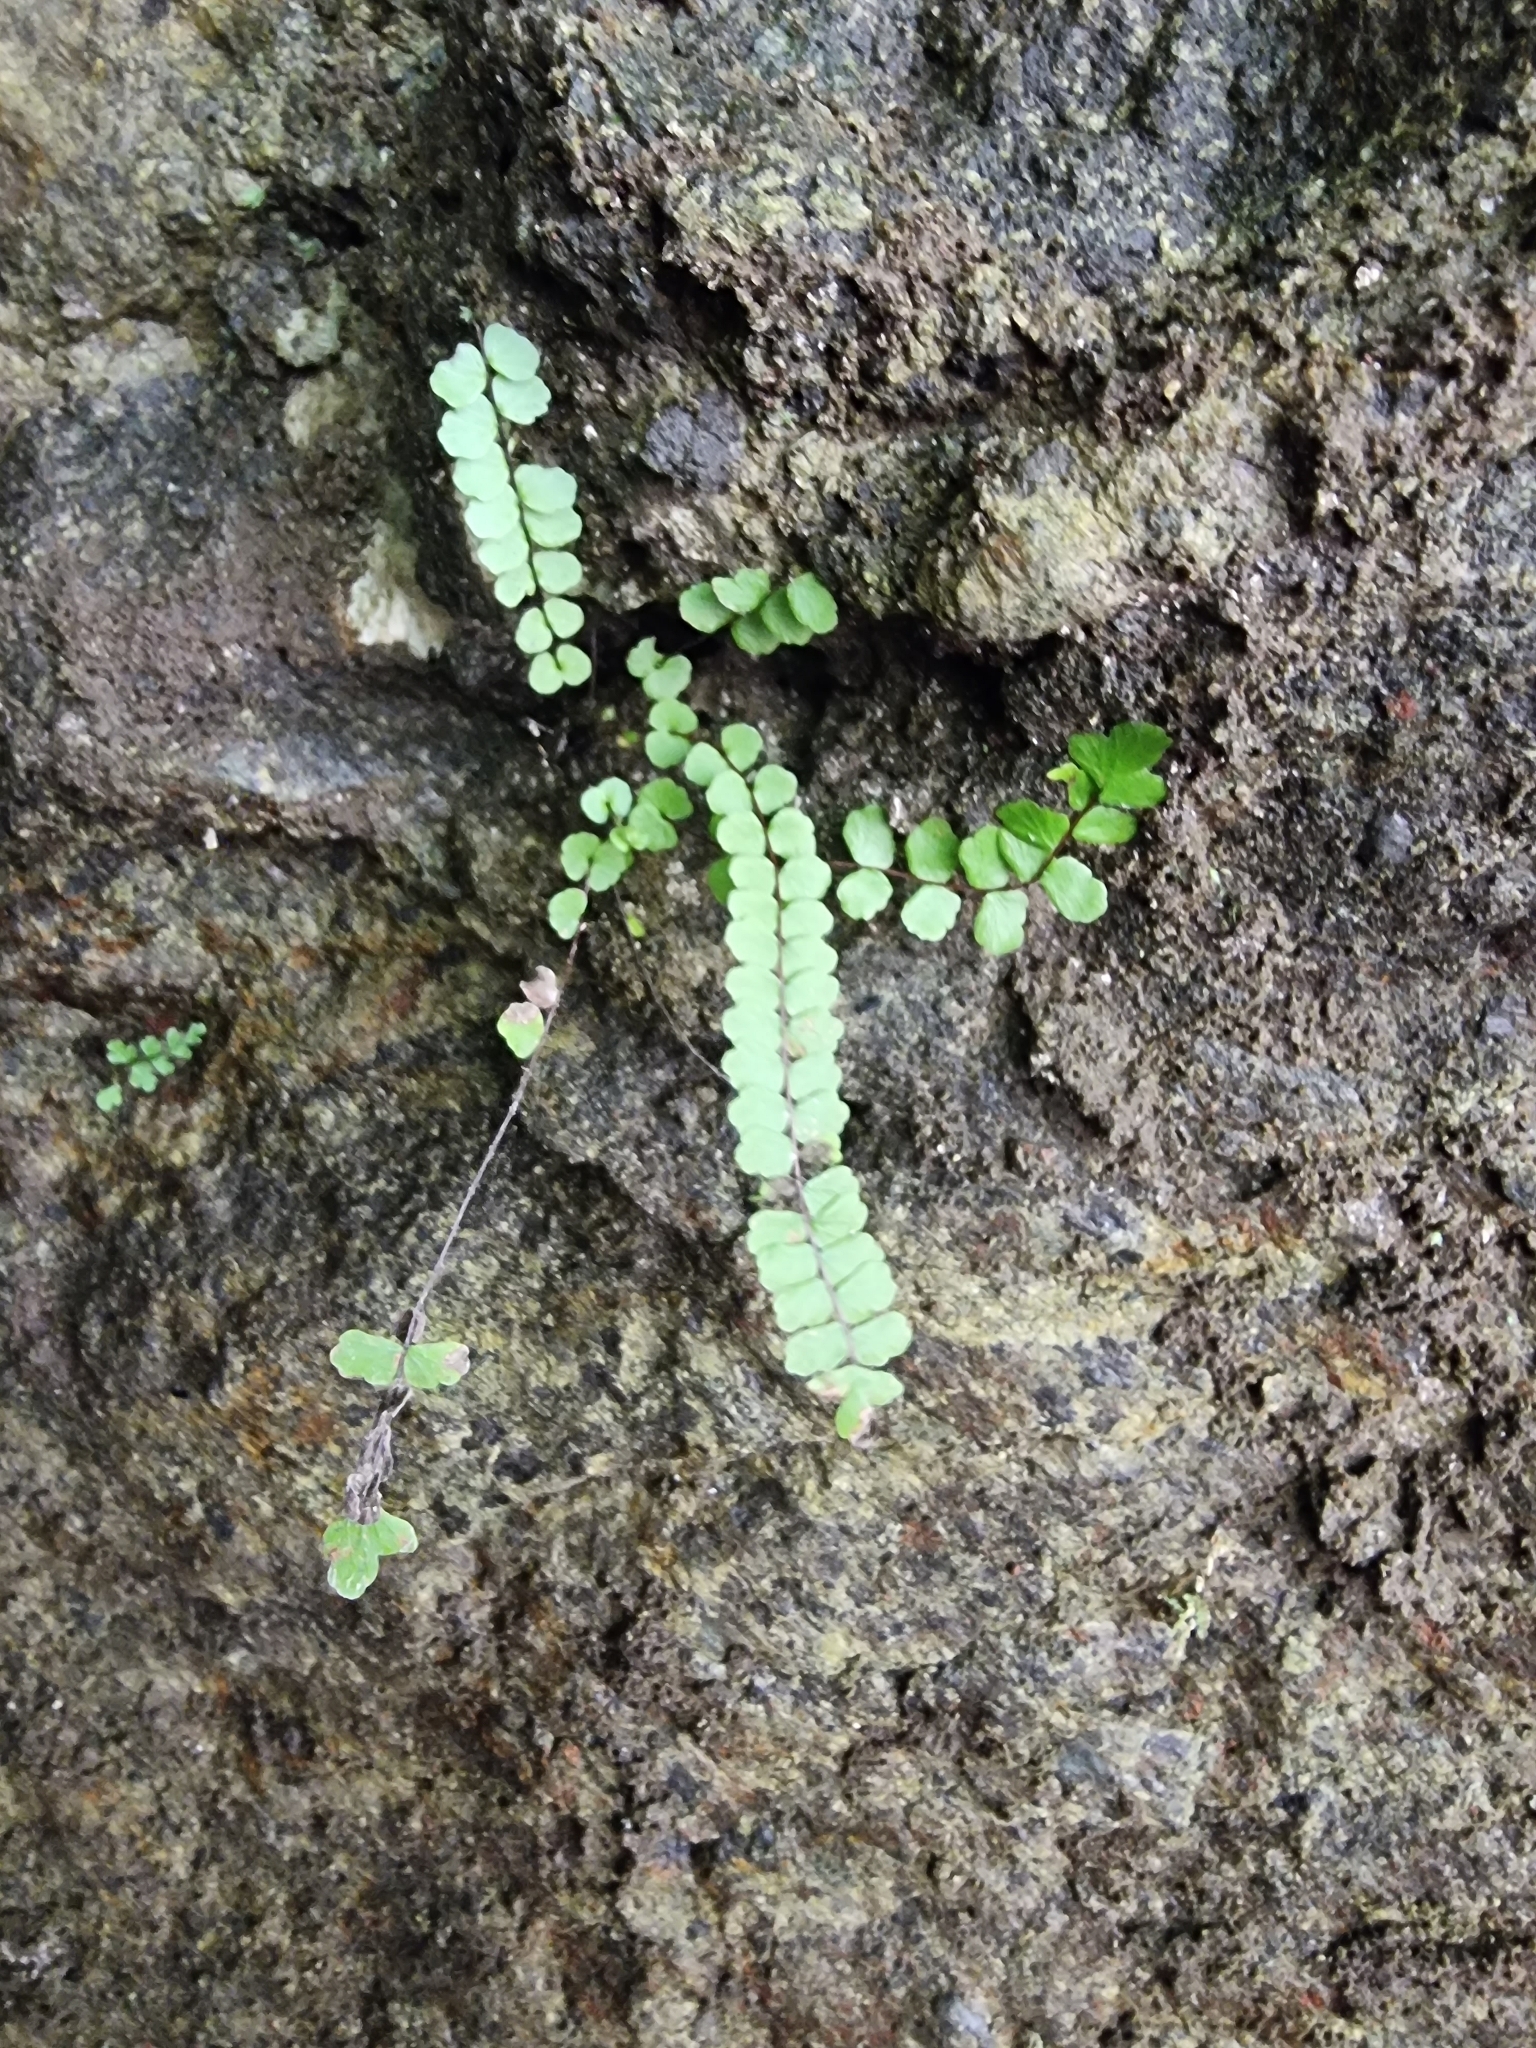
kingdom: Plantae
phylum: Tracheophyta
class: Polypodiopsida
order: Polypodiales
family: Aspleniaceae
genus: Asplenium
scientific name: Asplenium trichomanes
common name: Maidenhair spleenwort
